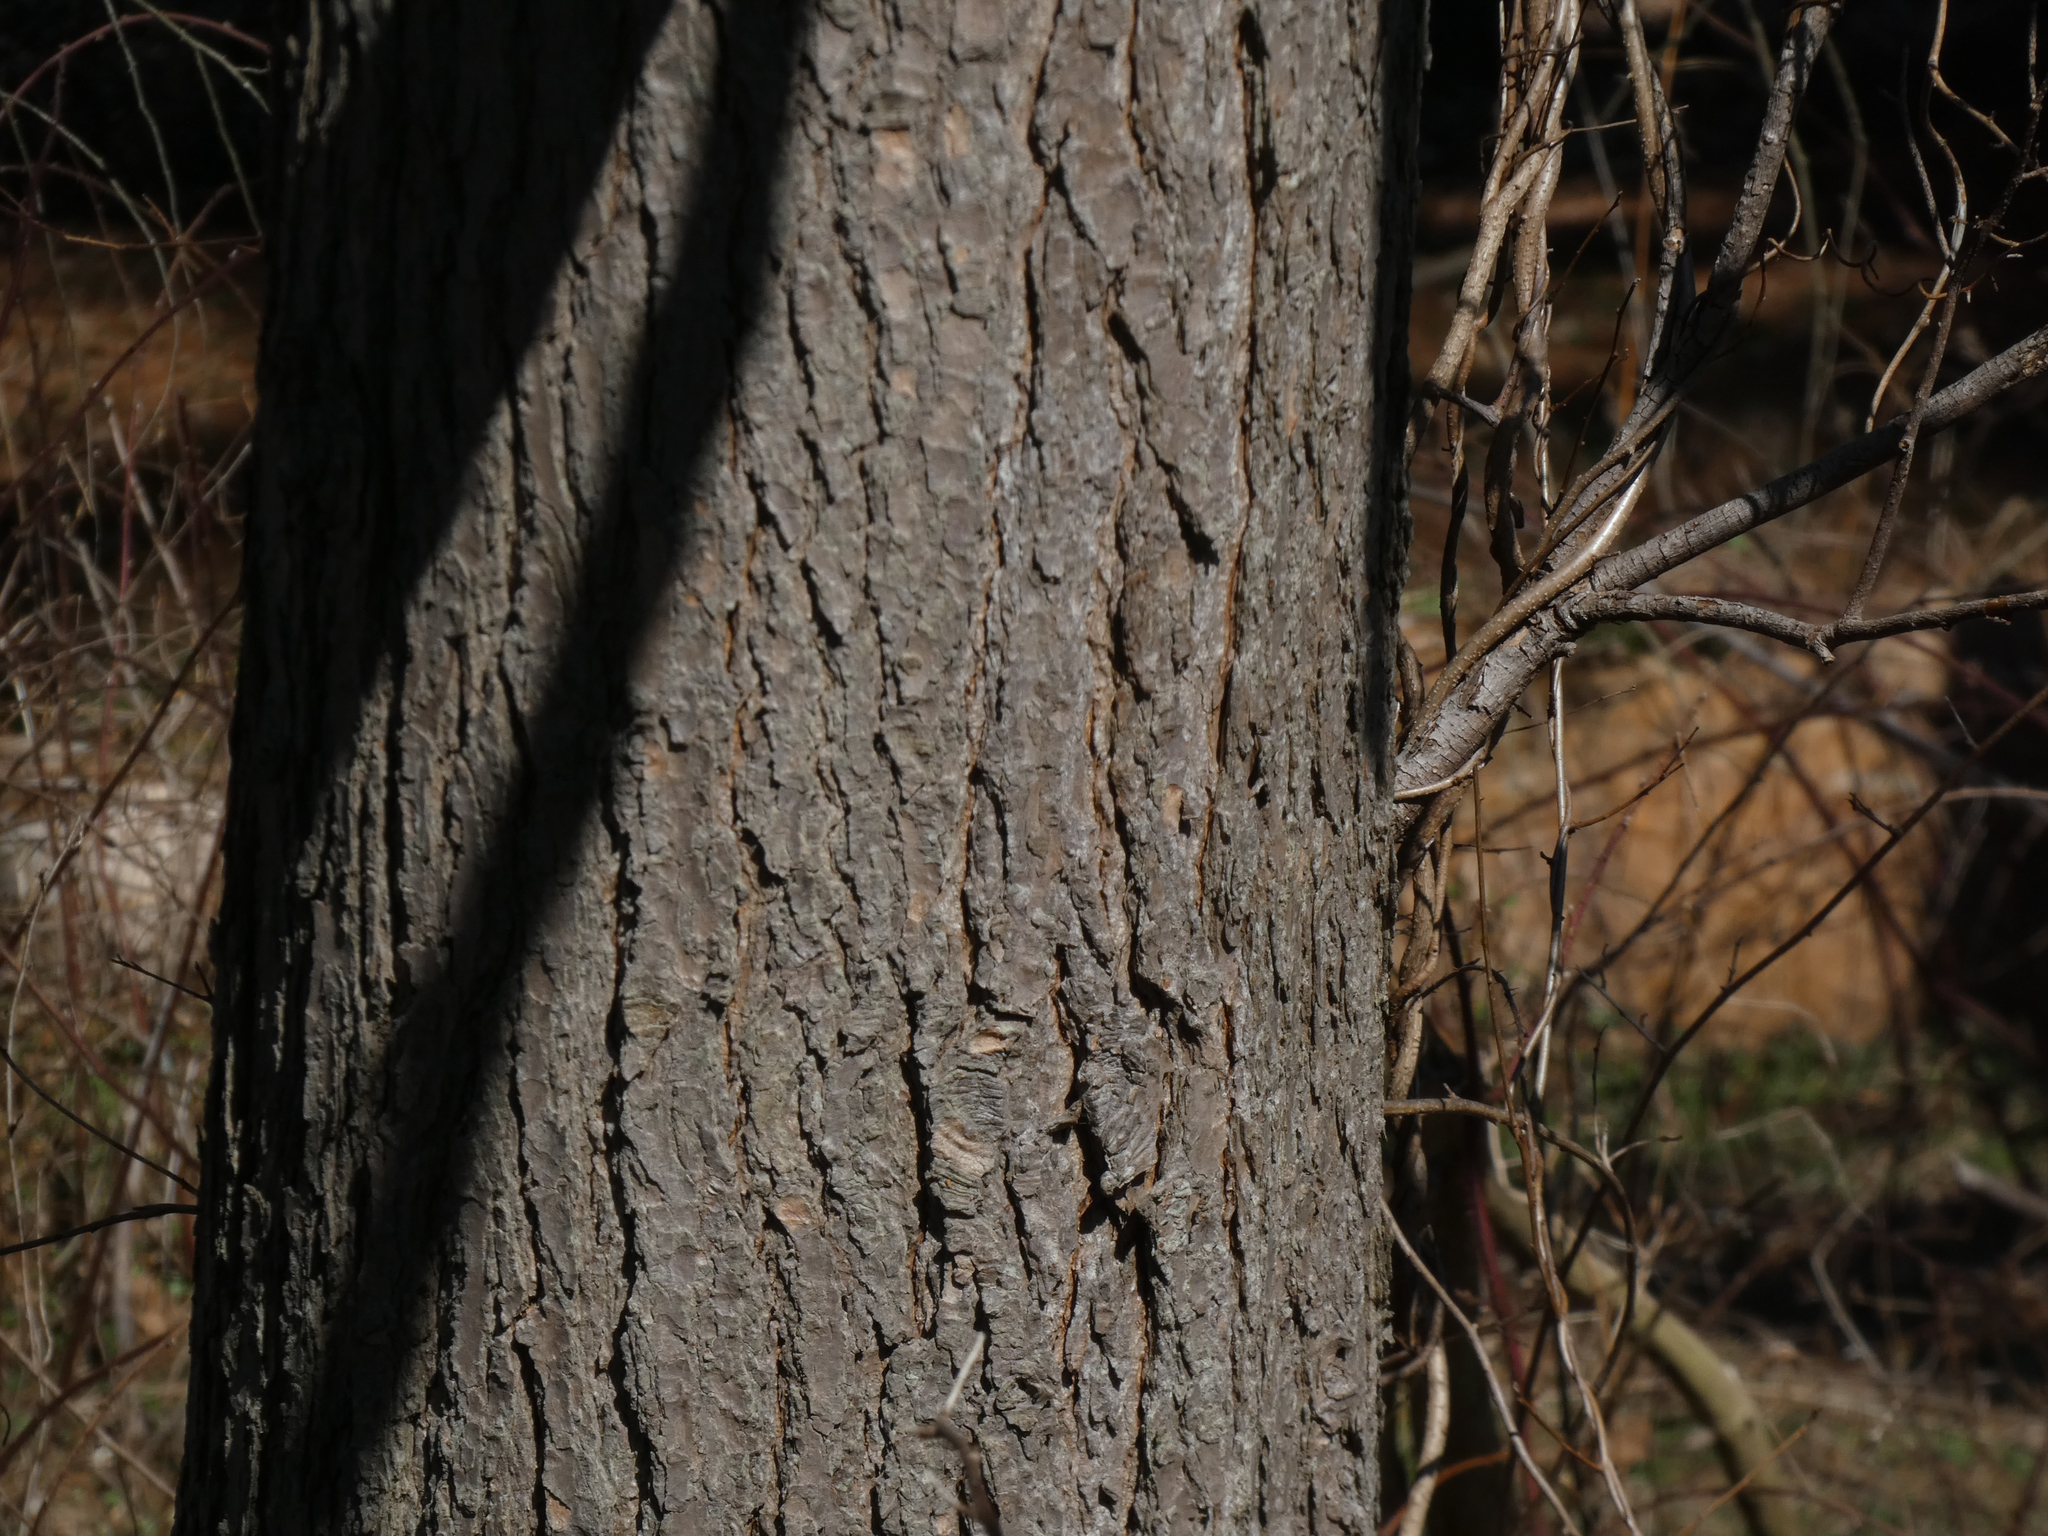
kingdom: Plantae
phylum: Tracheophyta
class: Pinopsida
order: Pinales
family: Pinaceae
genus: Tsuga
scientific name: Tsuga canadensis
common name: Eastern hemlock
